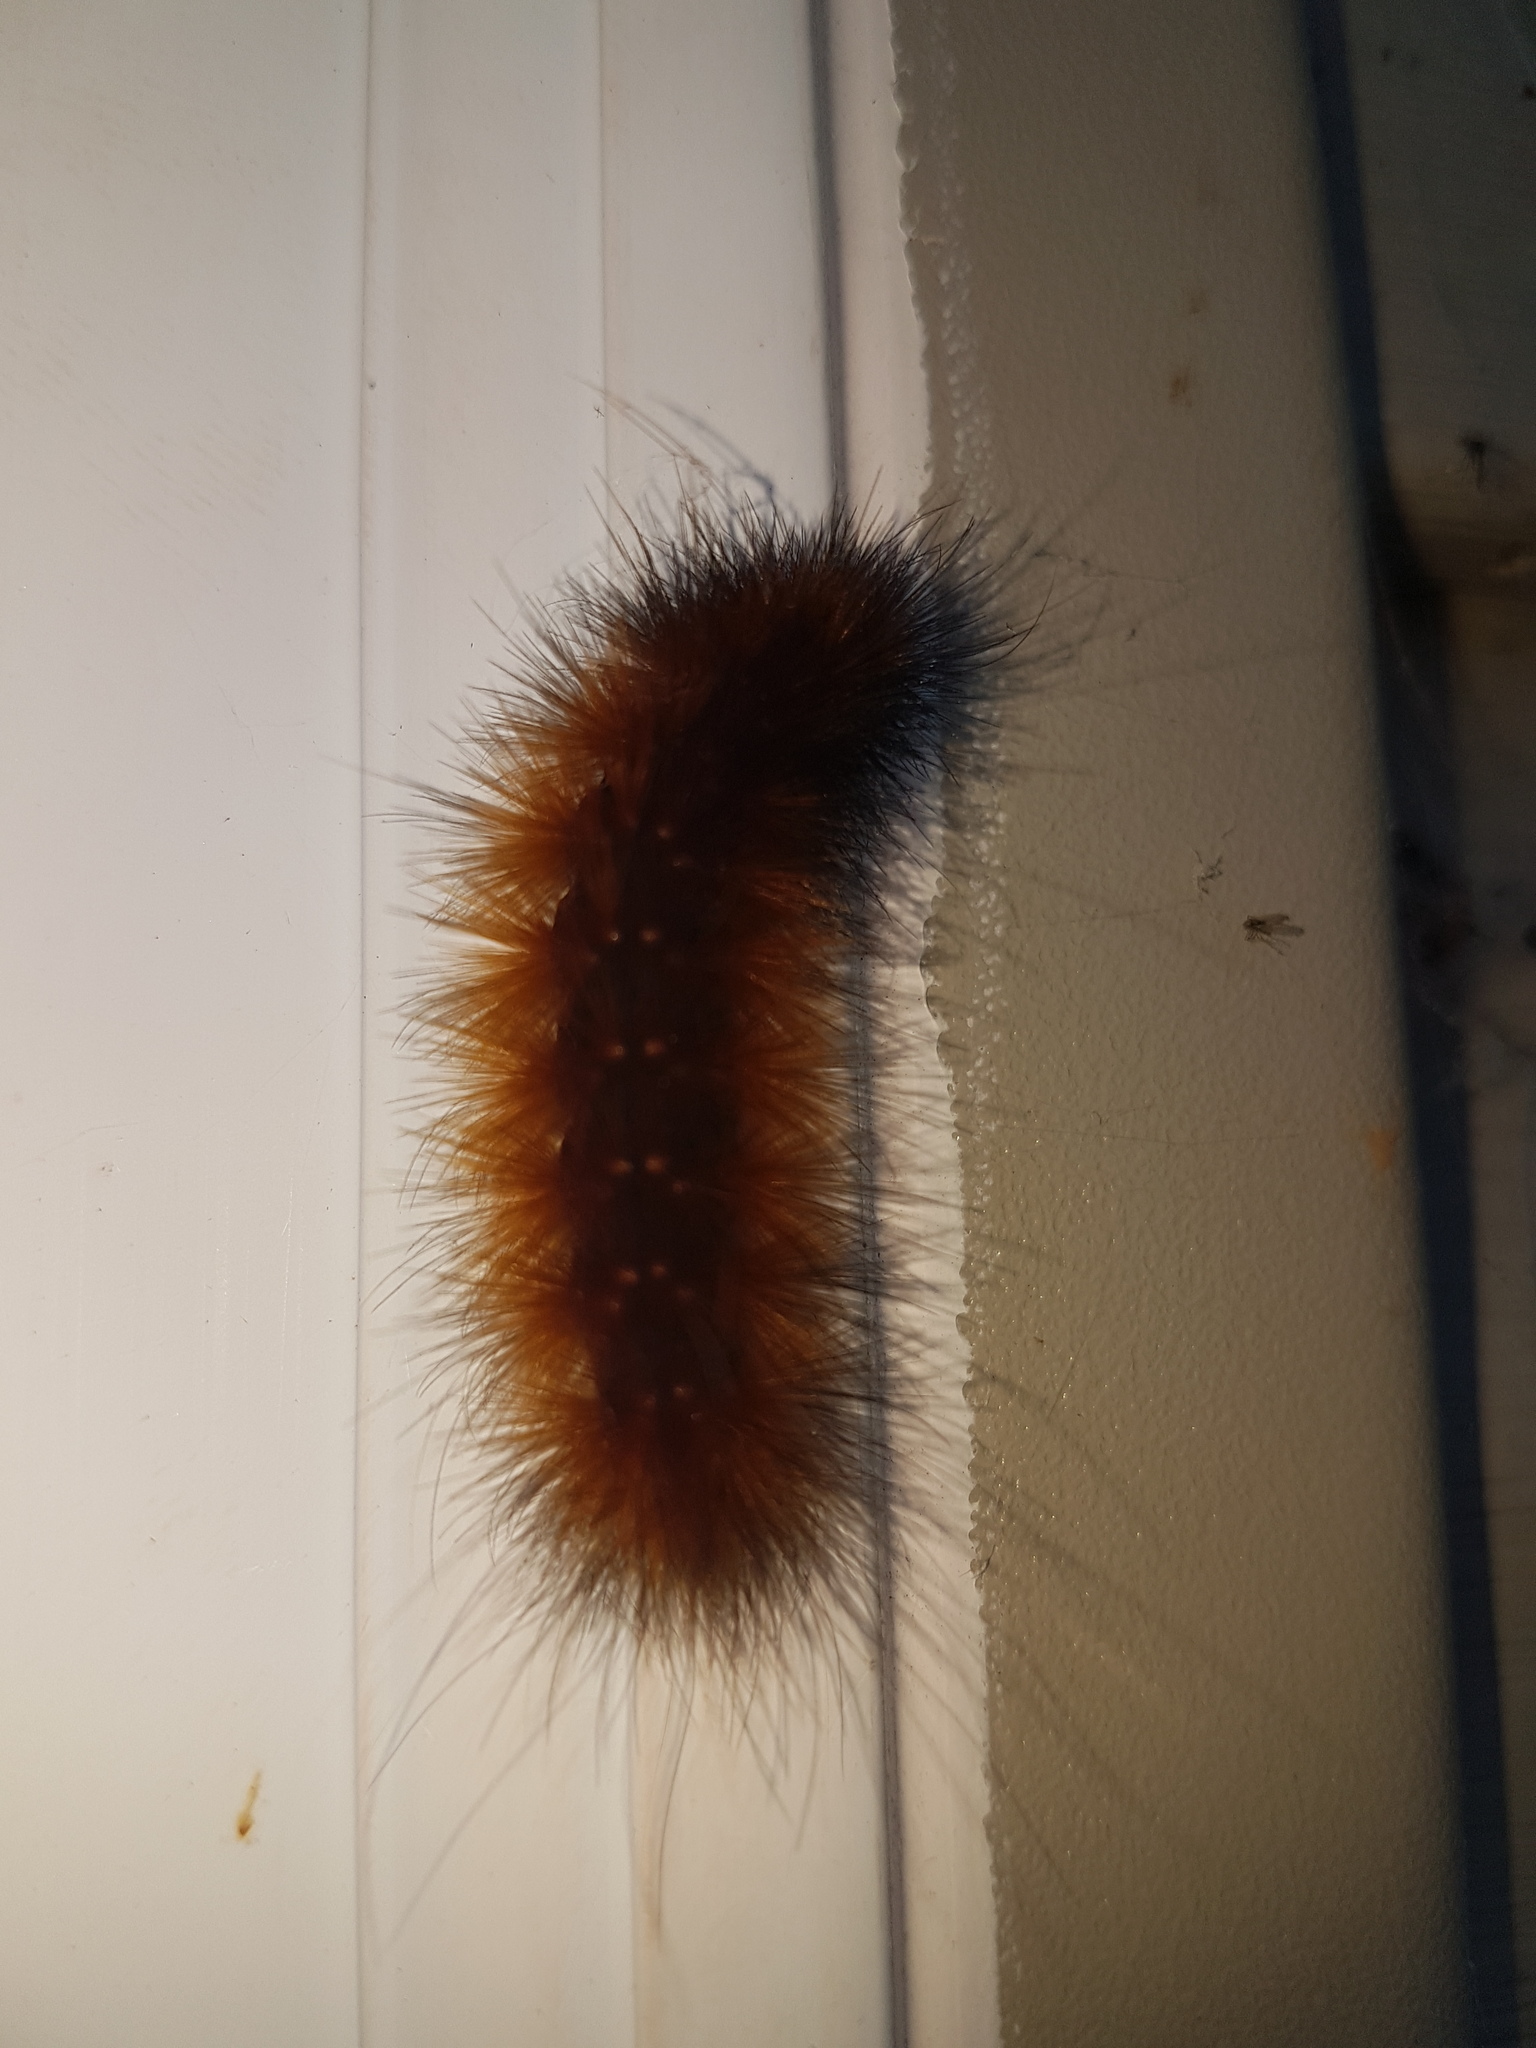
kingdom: Animalia
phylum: Arthropoda
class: Insecta
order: Lepidoptera
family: Erebidae
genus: Spilosoma
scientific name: Spilosoma virginica
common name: Virginia tiger moth
